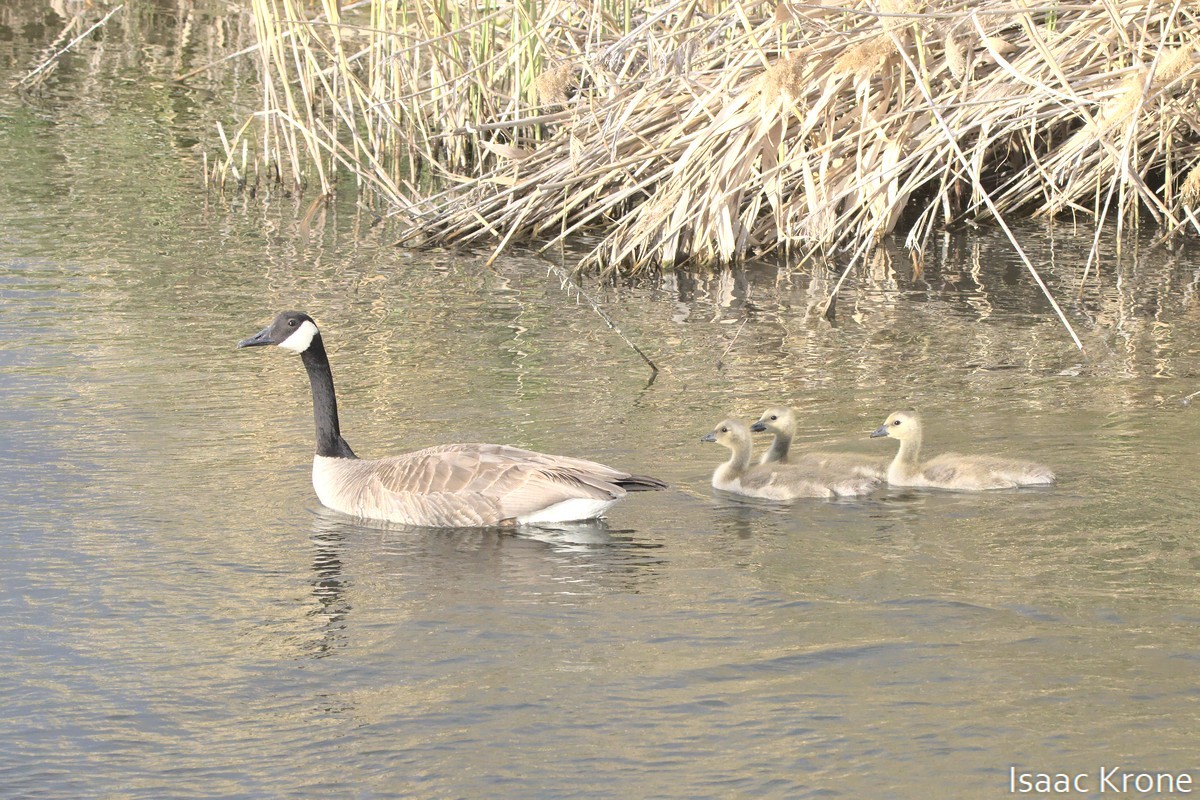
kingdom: Animalia
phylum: Chordata
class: Aves
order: Anseriformes
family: Anatidae
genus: Branta
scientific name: Branta canadensis
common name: Canada goose
